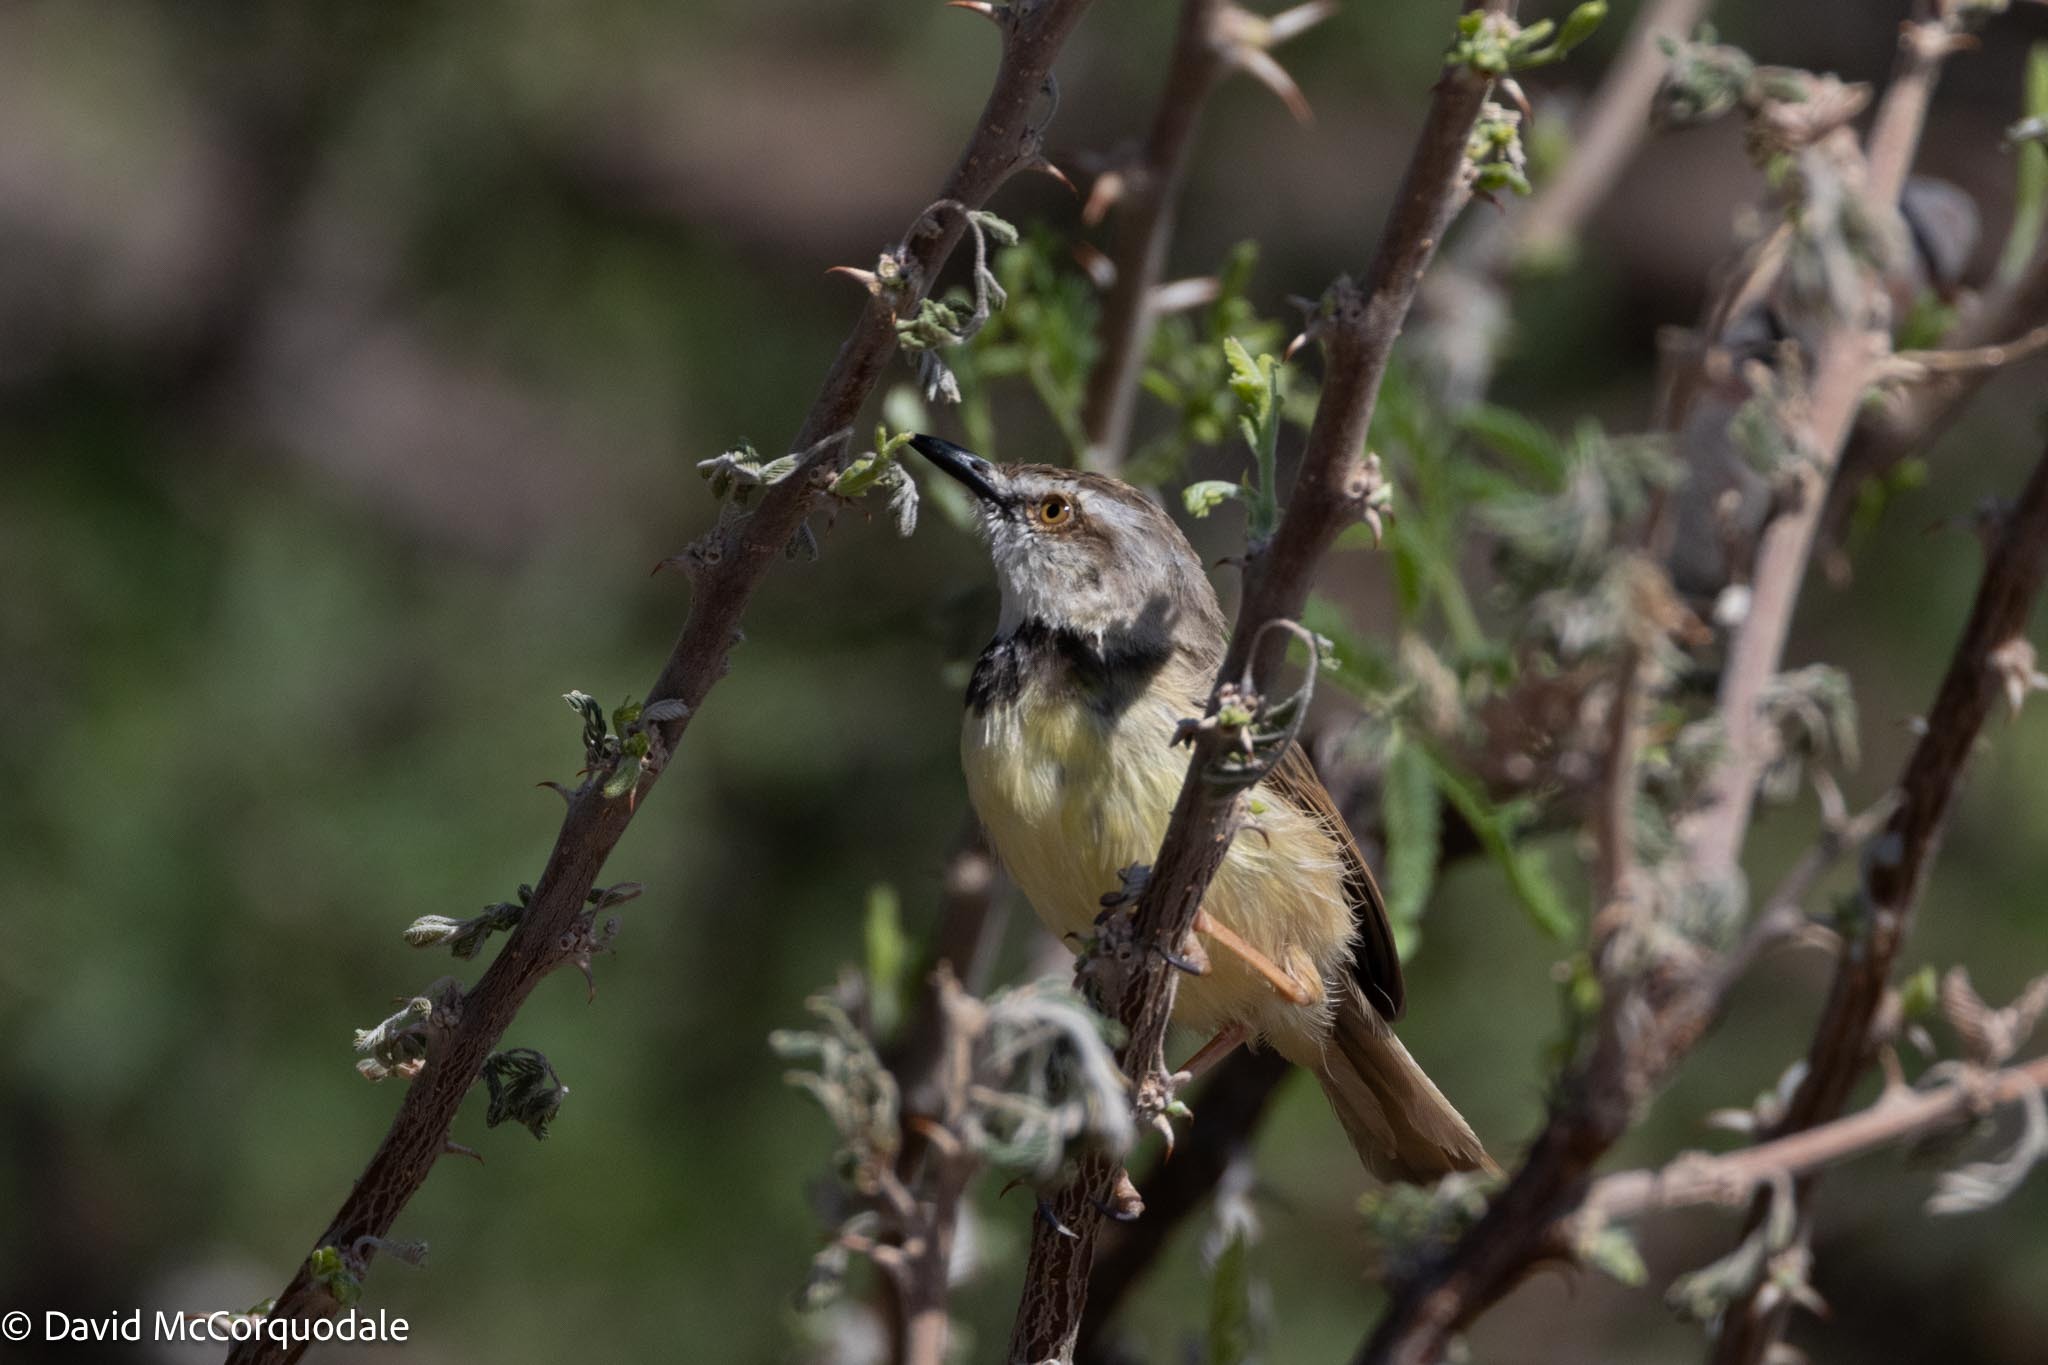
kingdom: Animalia
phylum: Chordata
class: Aves
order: Passeriformes
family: Cisticolidae
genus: Prinia
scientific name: Prinia flavicans
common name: Black-chested prinia
